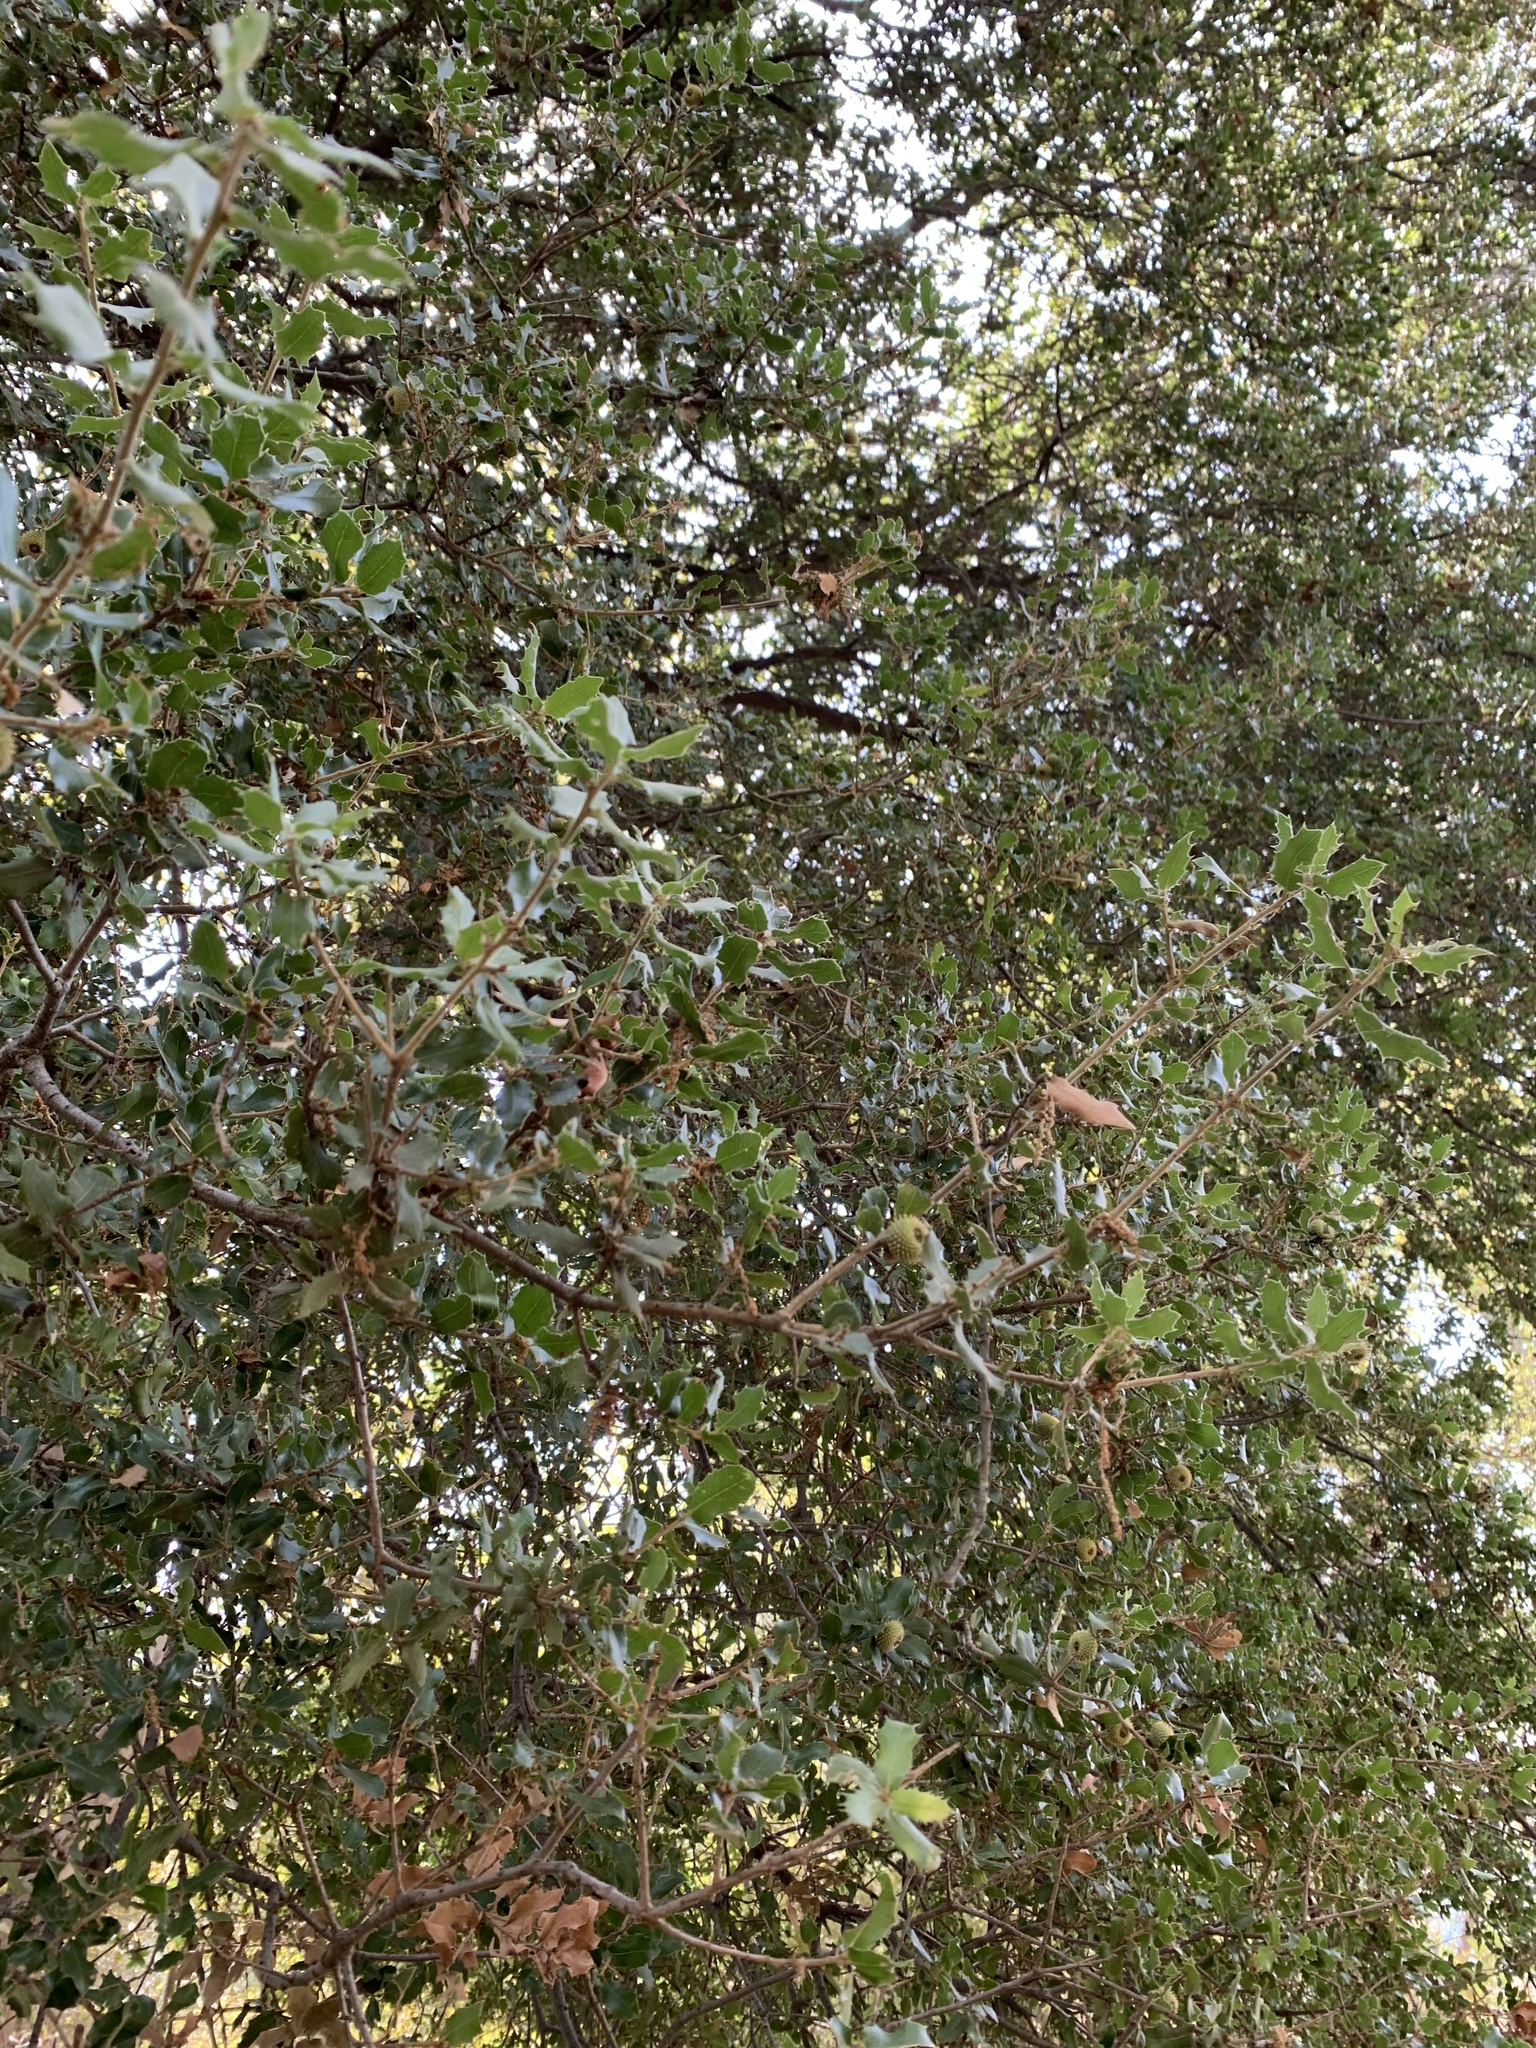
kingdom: Plantae
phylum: Tracheophyta
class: Magnoliopsida
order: Fagales
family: Fagaceae
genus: Quercus
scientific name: Quercus coccifera
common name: Kermes oak
